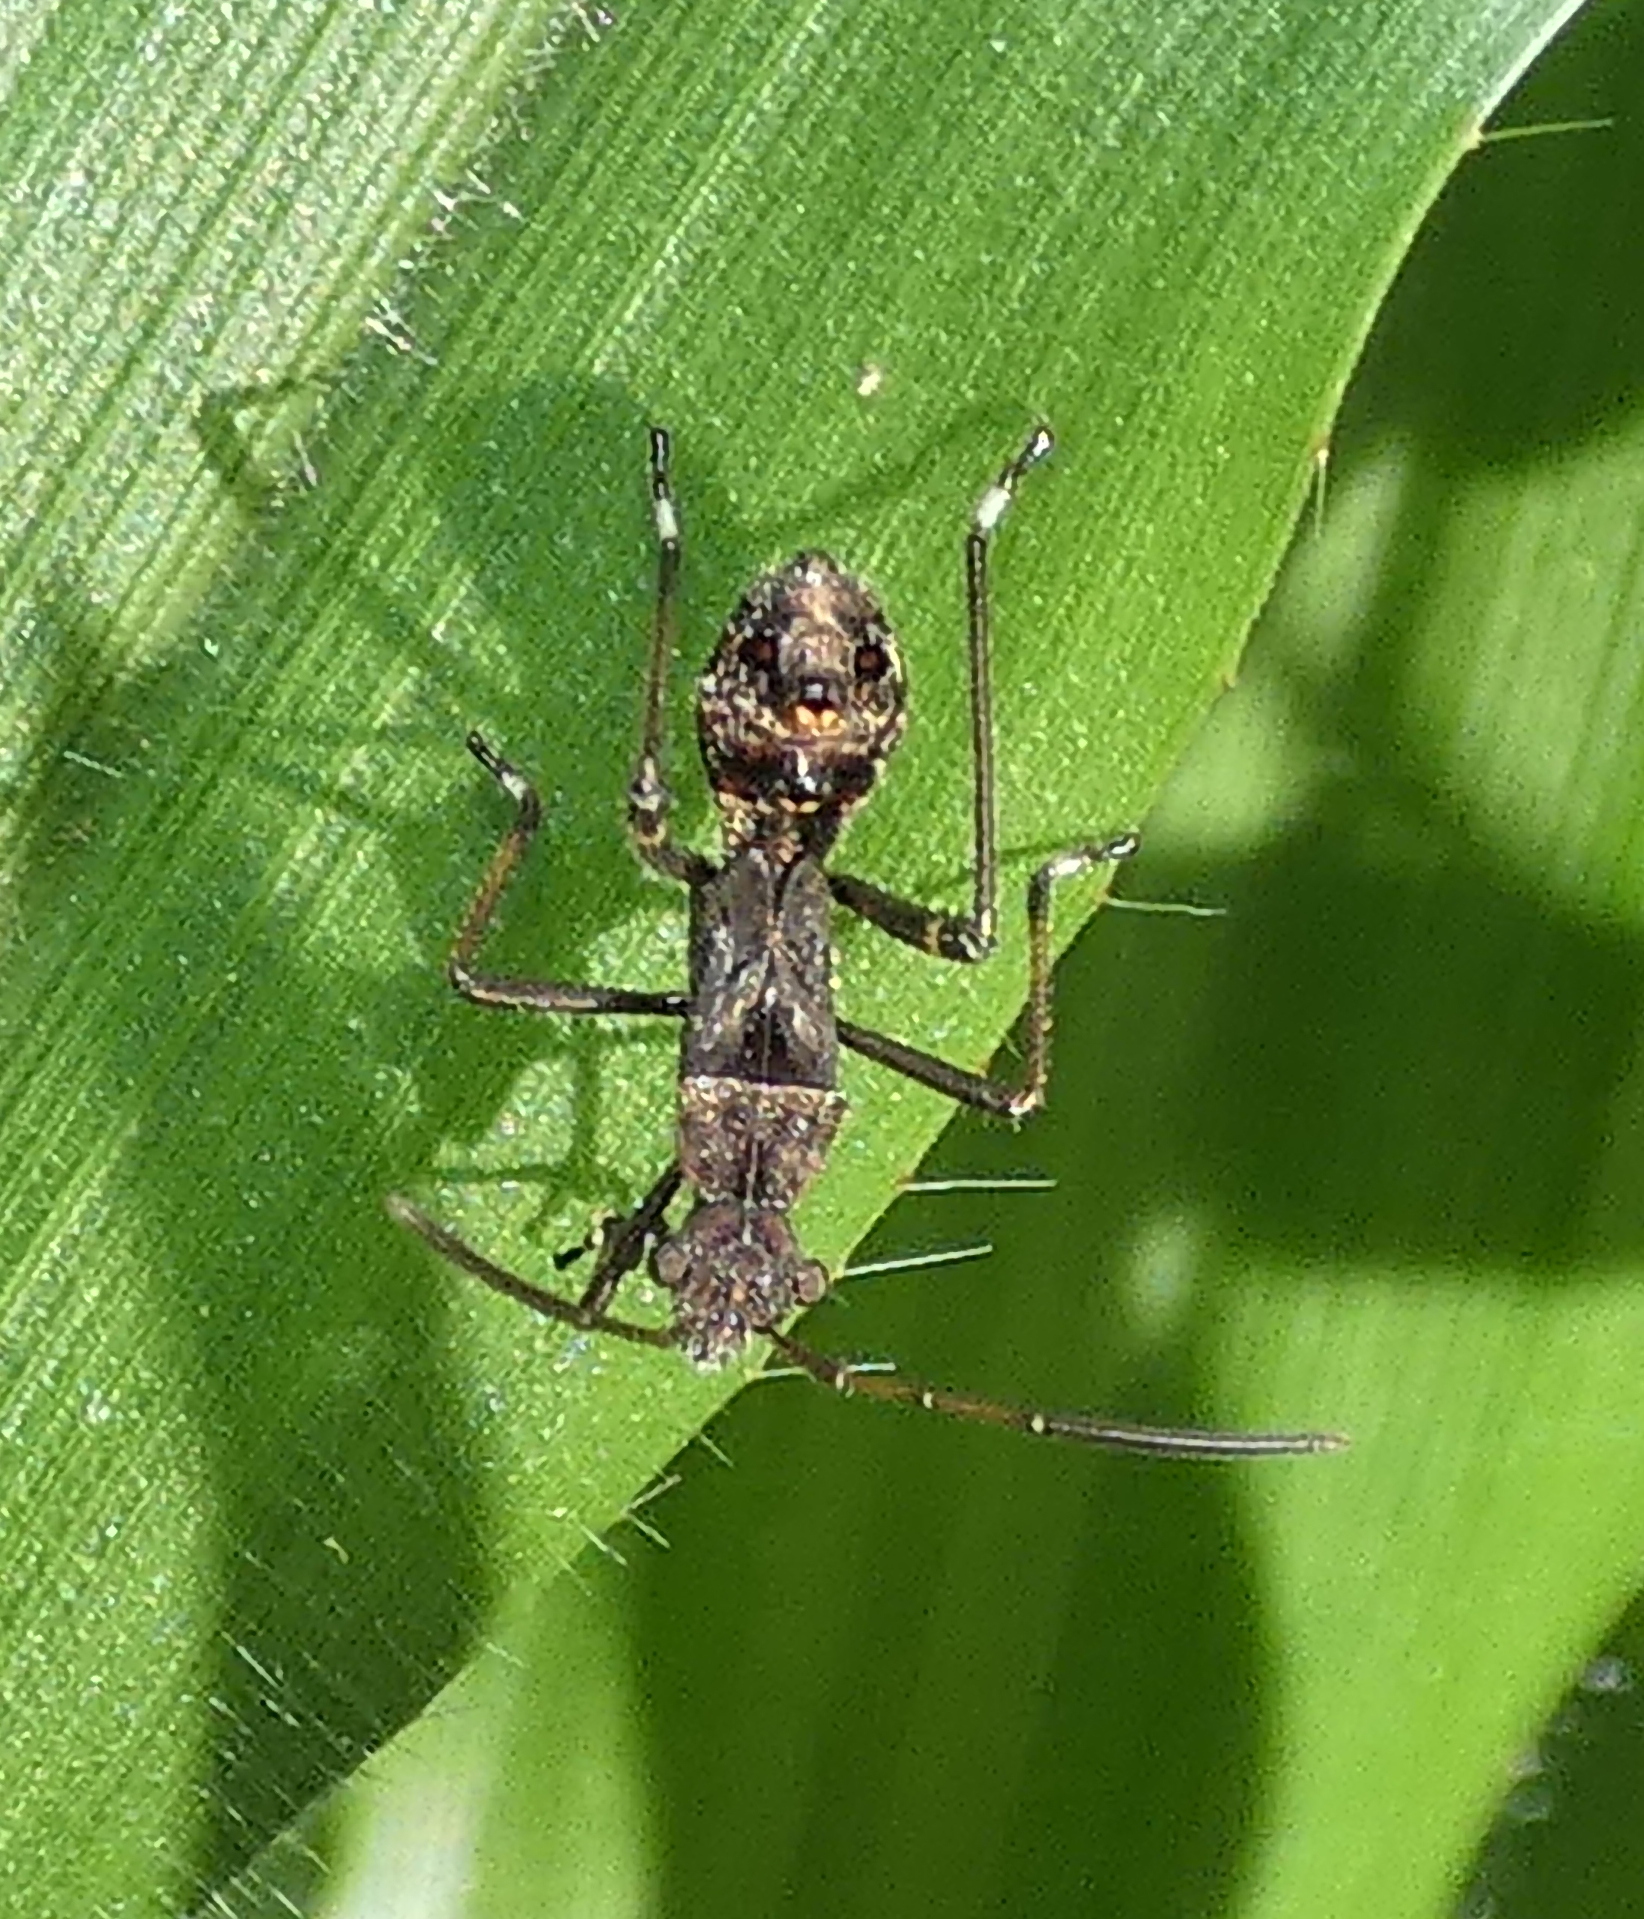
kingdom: Animalia
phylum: Arthropoda
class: Insecta
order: Hemiptera
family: Alydidae
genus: Neomegalotomus
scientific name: Neomegalotomus parvus
